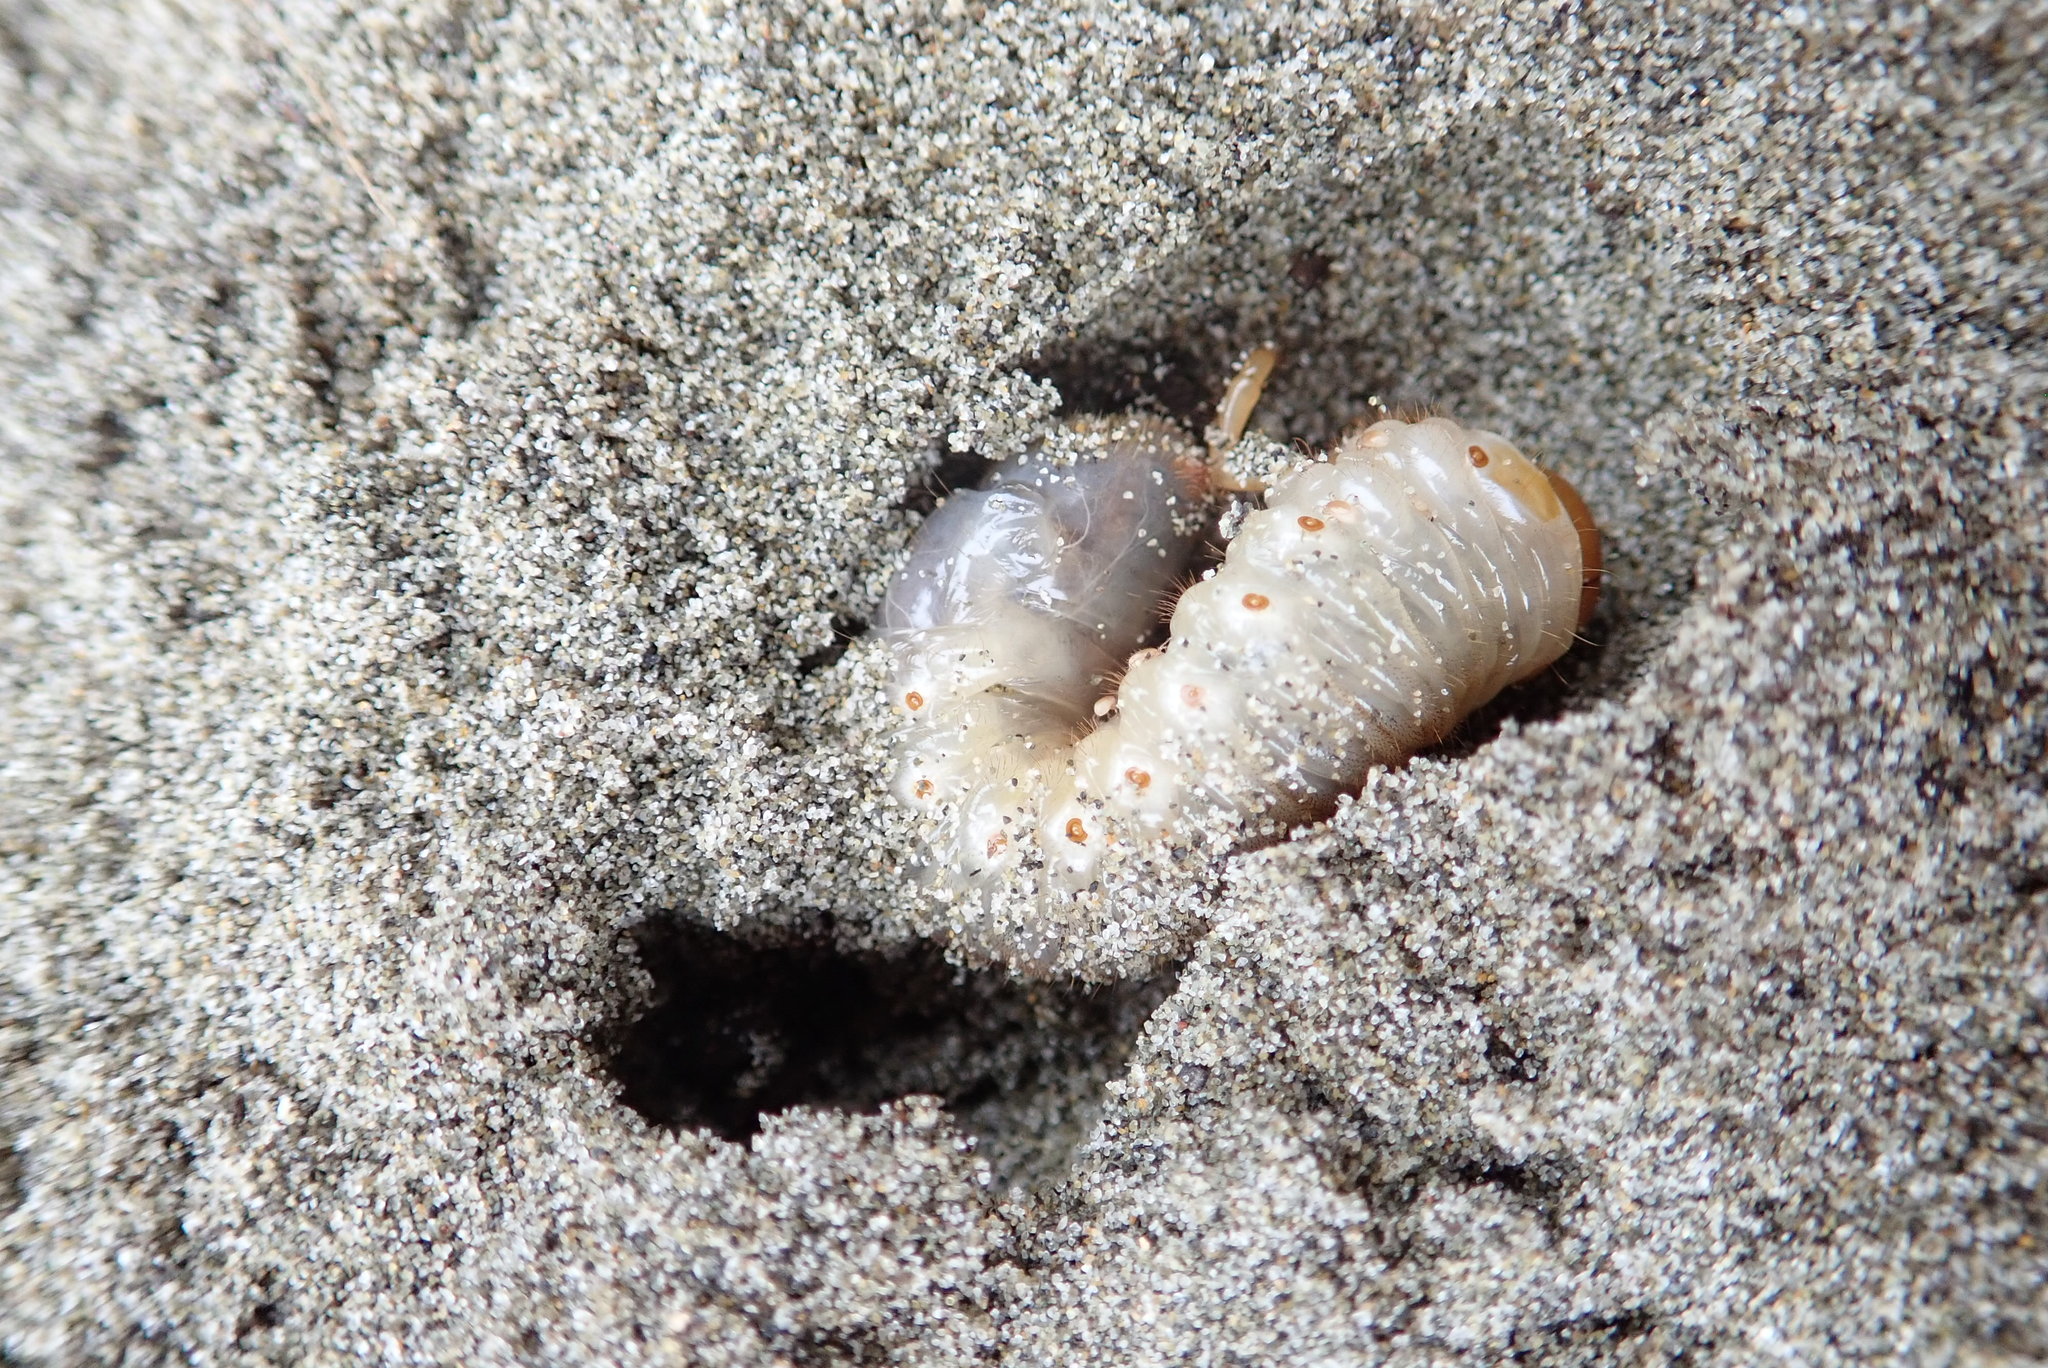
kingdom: Animalia
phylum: Arthropoda
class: Insecta
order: Coleoptera
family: Scarabaeidae
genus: Pericoptus
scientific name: Pericoptus truncatus
